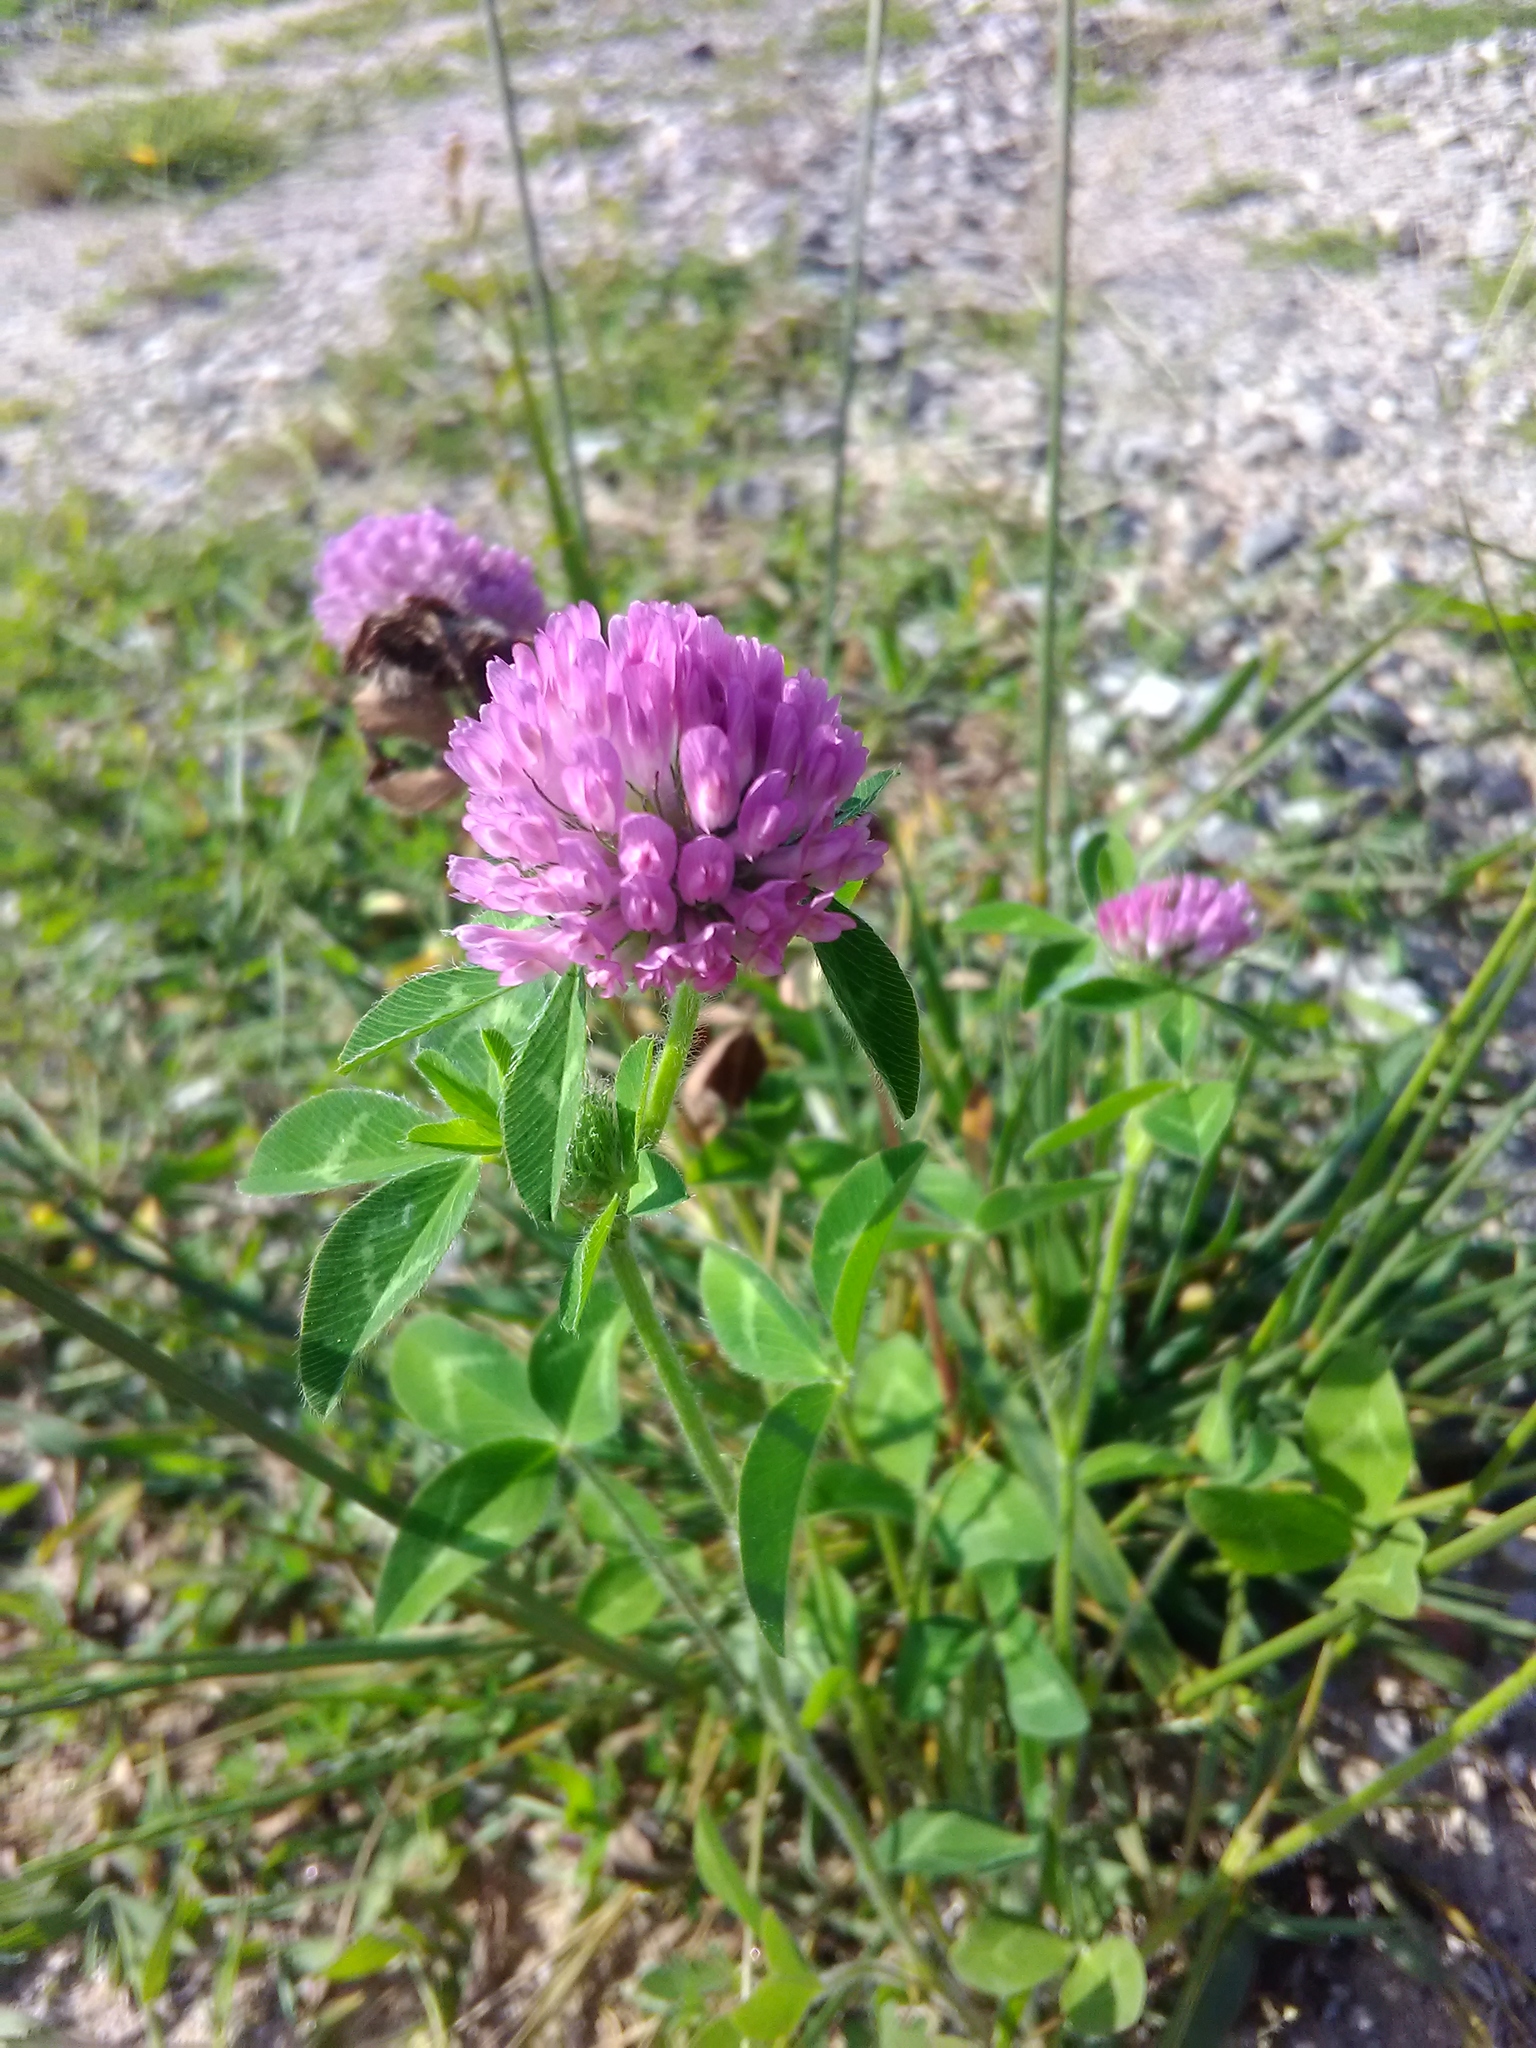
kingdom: Plantae
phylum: Tracheophyta
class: Magnoliopsida
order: Fabales
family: Fabaceae
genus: Trifolium
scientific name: Trifolium pratense
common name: Red clover
